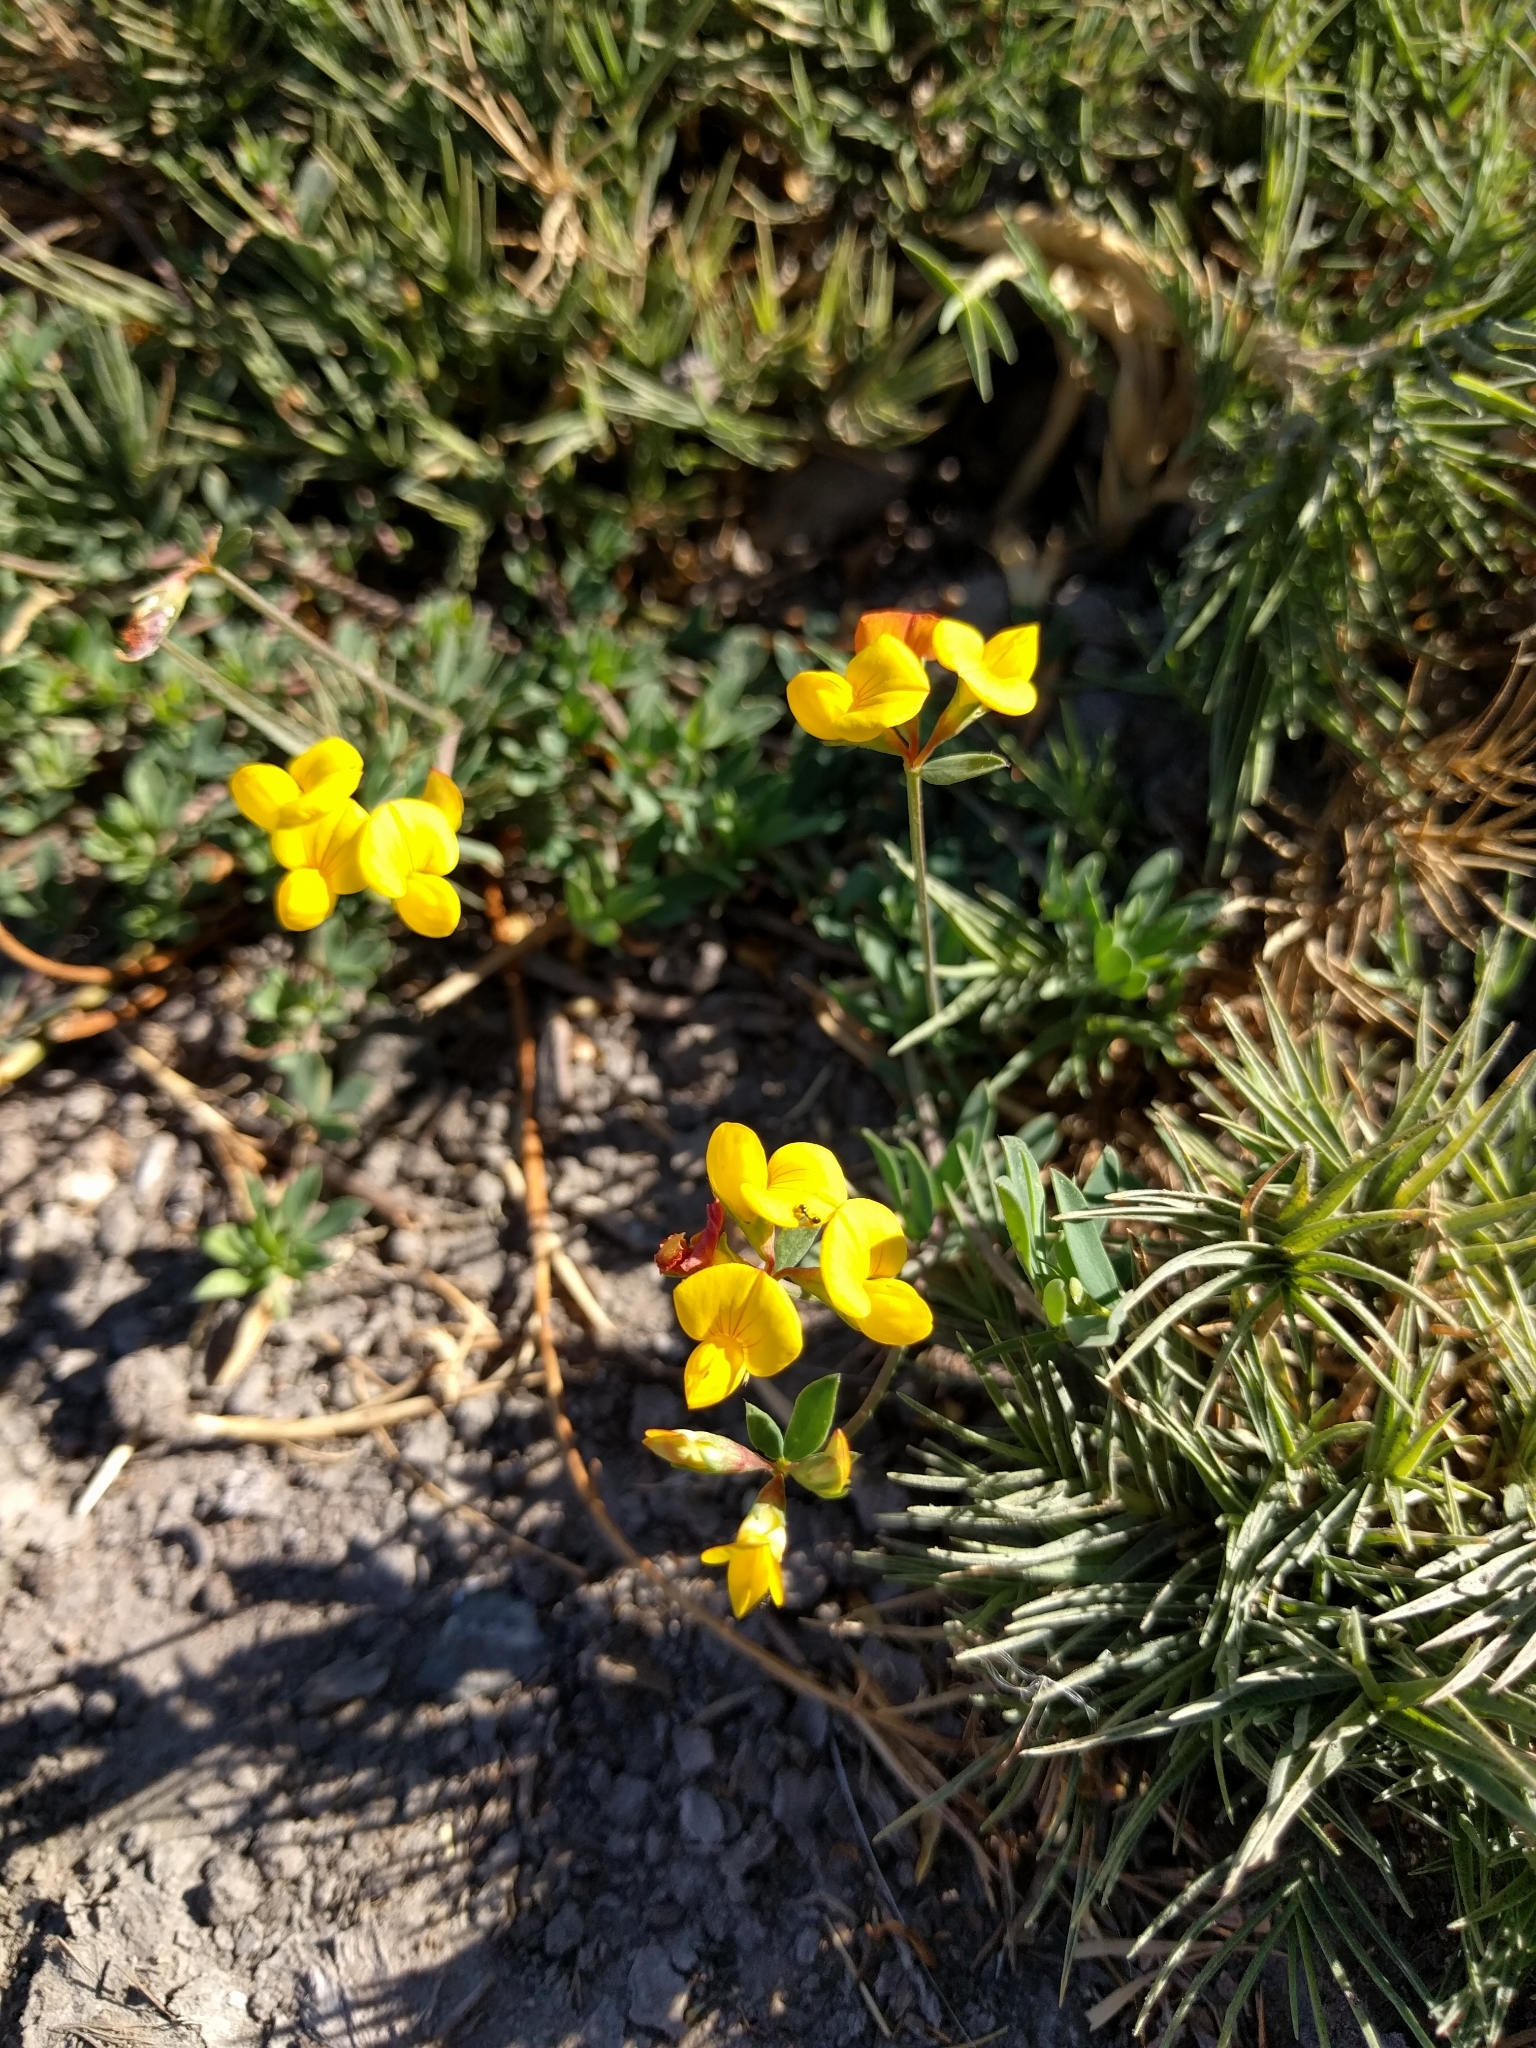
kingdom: Plantae
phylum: Tracheophyta
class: Magnoliopsida
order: Fabales
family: Fabaceae
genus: Lotus
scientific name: Lotus corniculatus
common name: Common bird's-foot-trefoil
